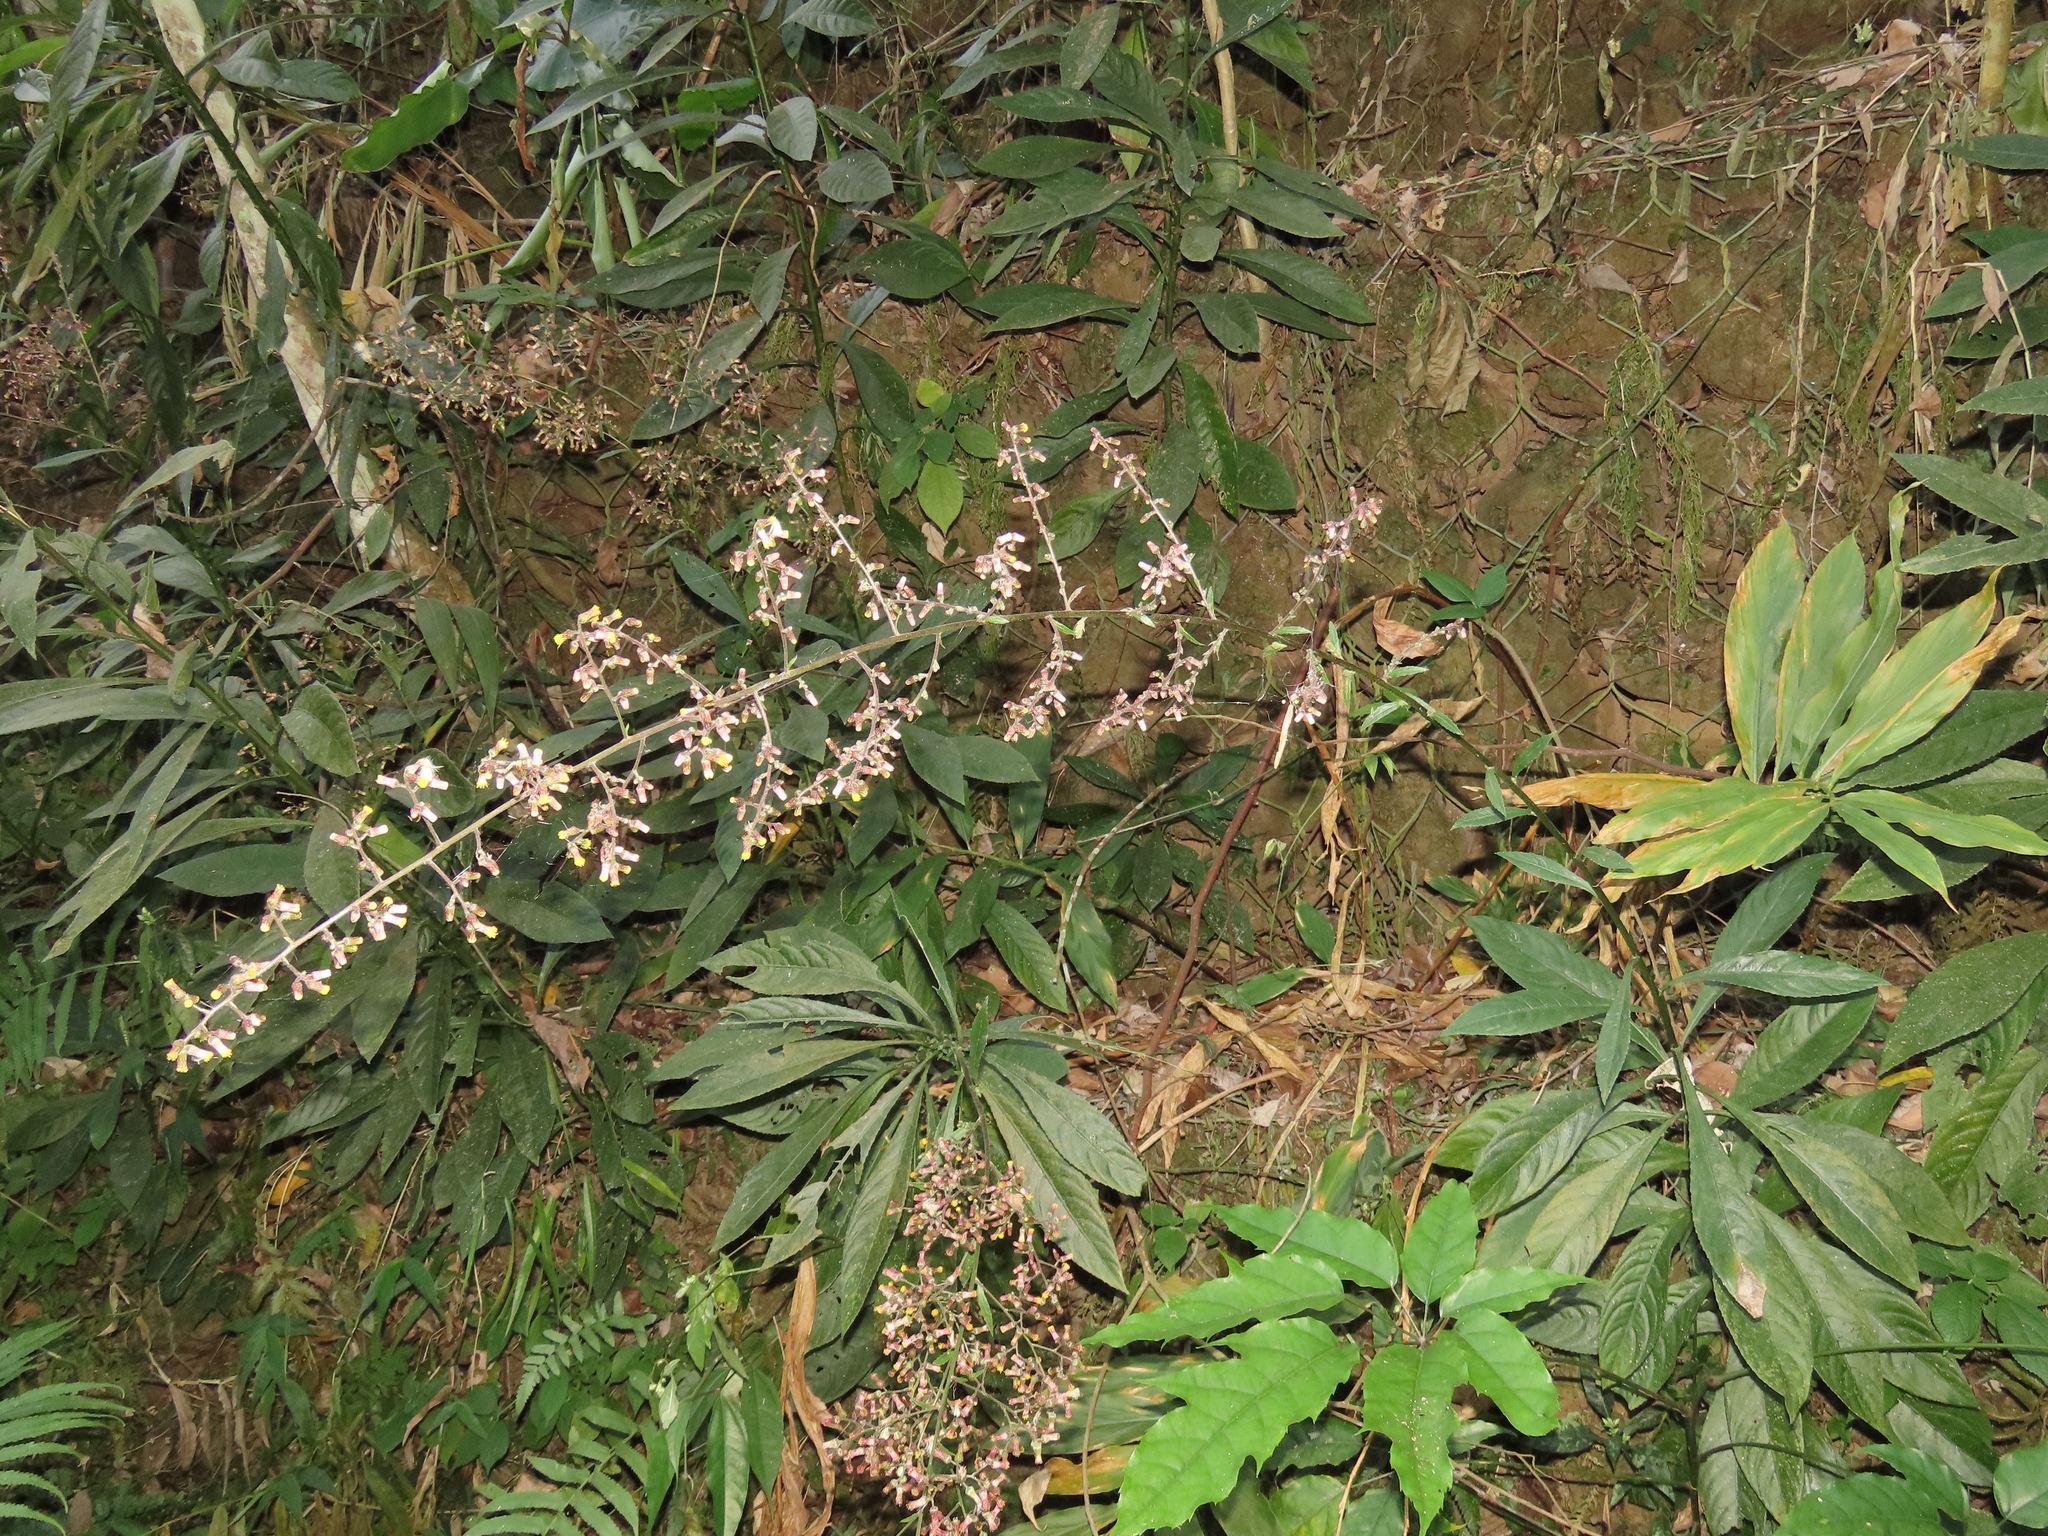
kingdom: Plantae
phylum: Tracheophyta
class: Magnoliopsida
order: Asterales
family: Asteraceae
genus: Blumea
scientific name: Blumea lanceolaria
